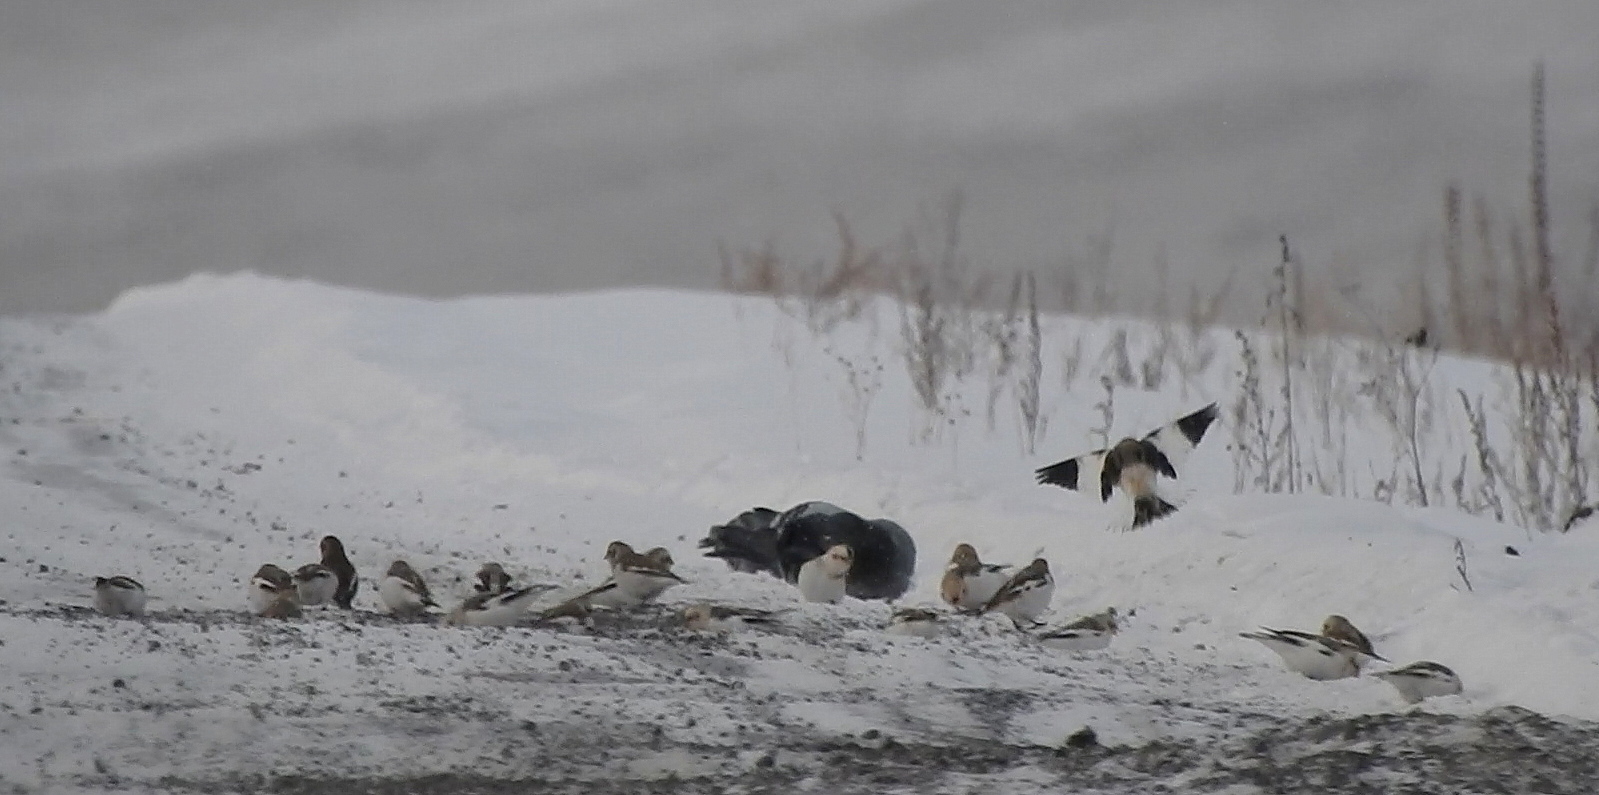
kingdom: Animalia
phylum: Chordata
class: Aves
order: Passeriformes
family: Calcariidae
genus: Plectrophenax
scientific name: Plectrophenax nivalis
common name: Snow bunting
